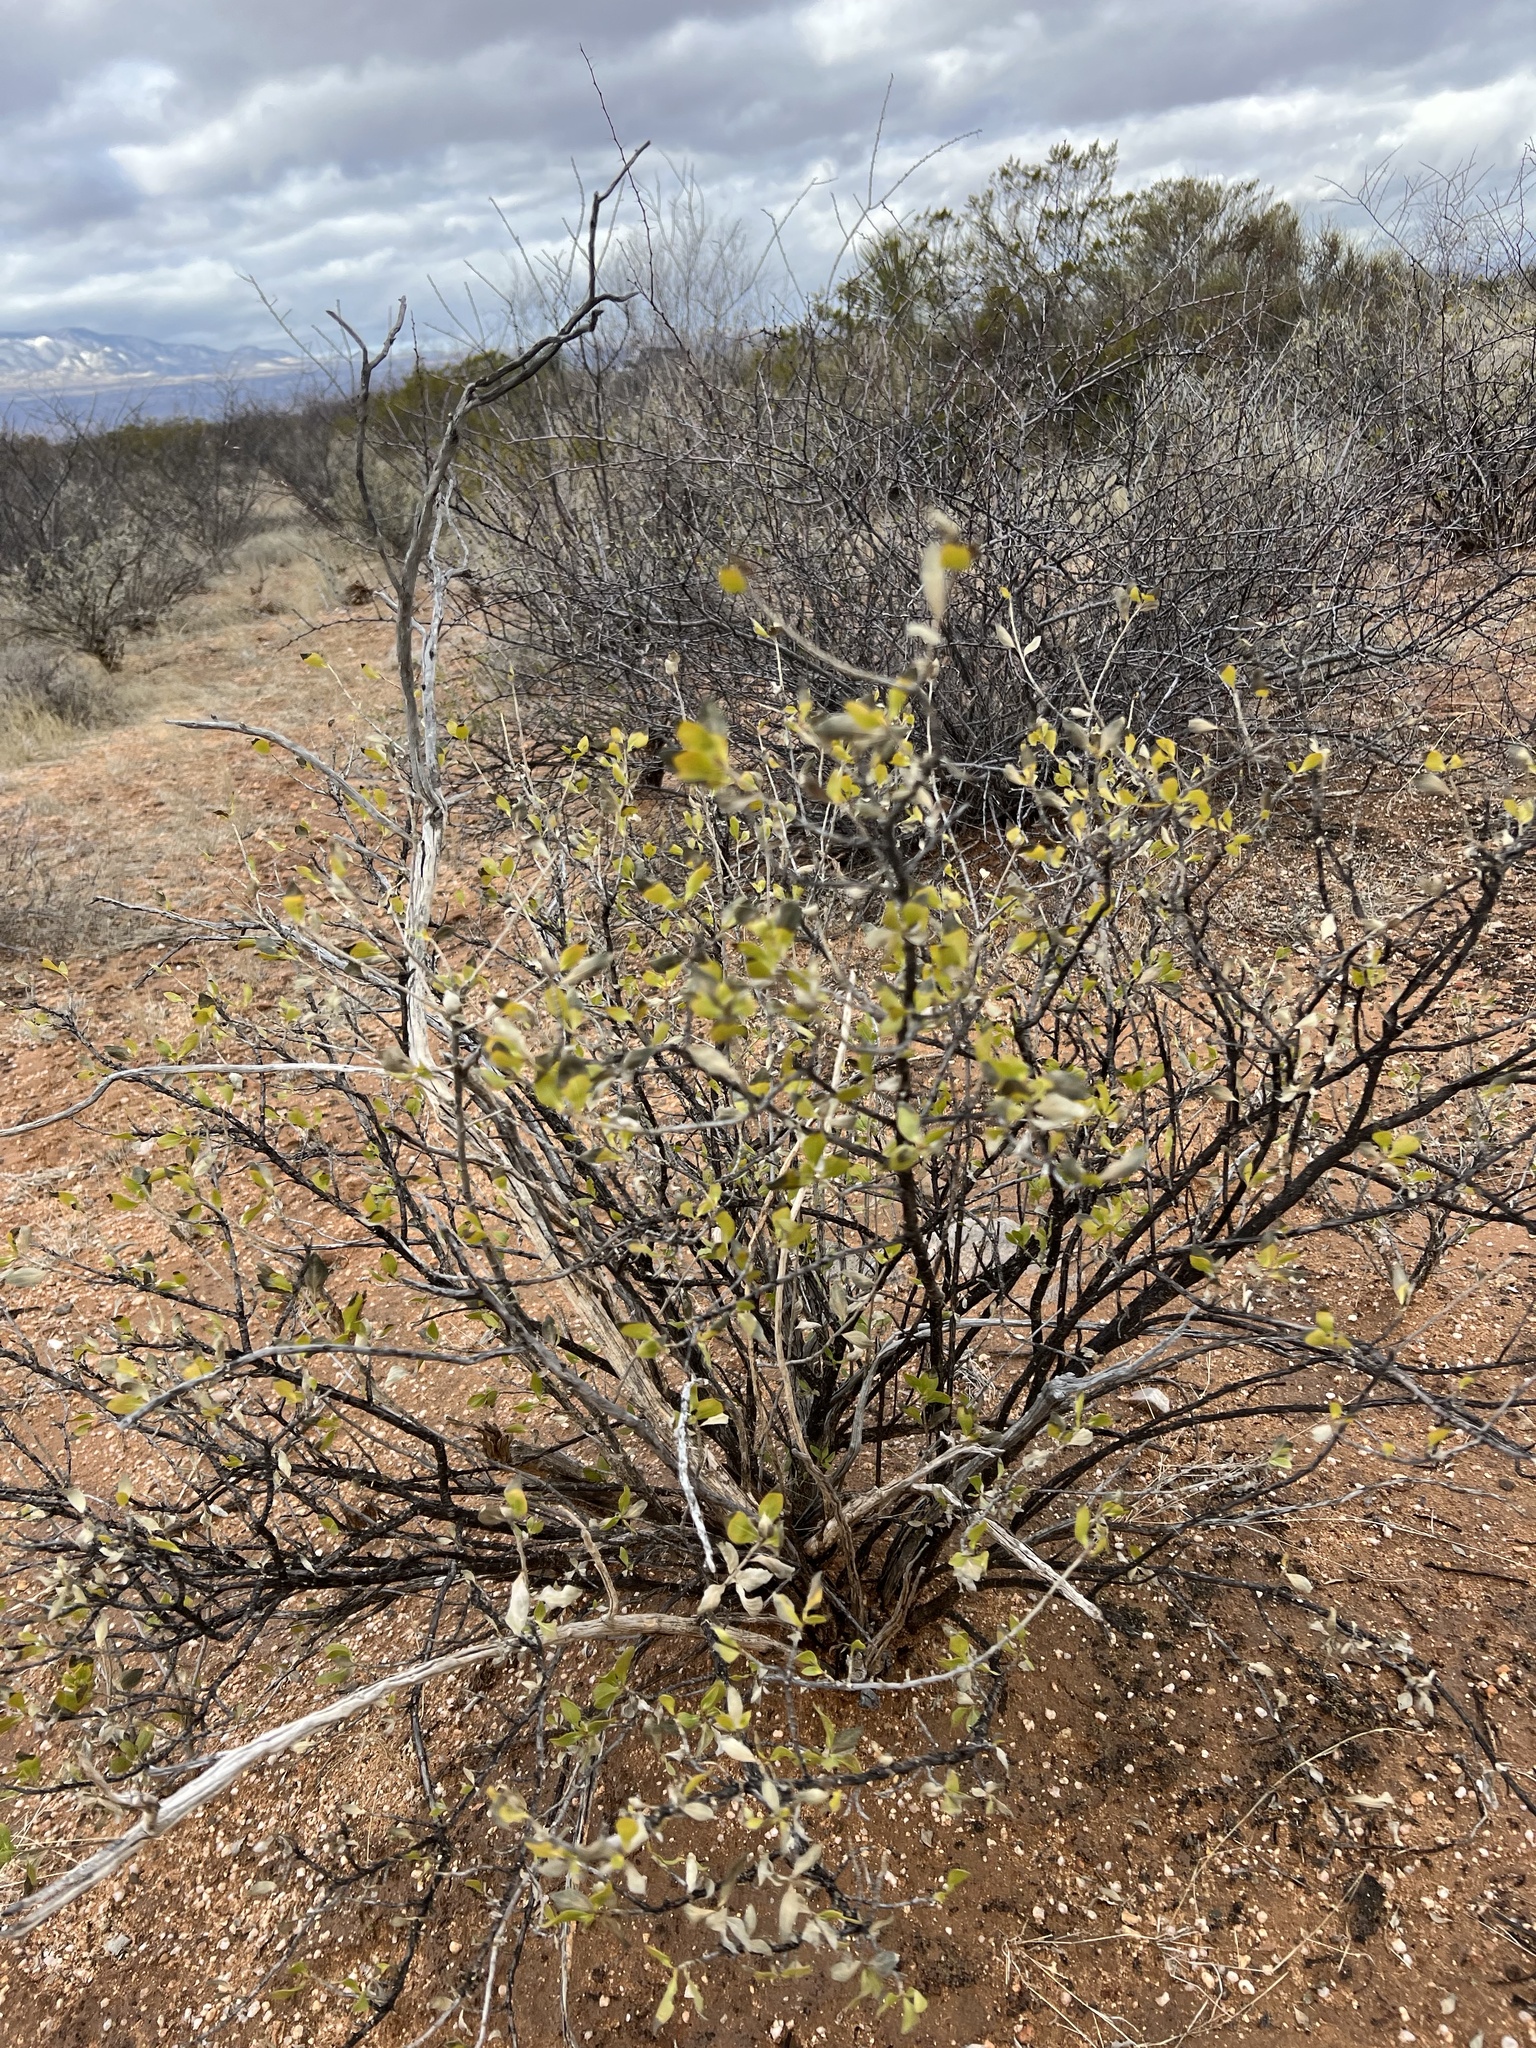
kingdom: Plantae
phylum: Tracheophyta
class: Magnoliopsida
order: Asterales
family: Asteraceae
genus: Flourensia
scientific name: Flourensia cernua
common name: Varnishbush
